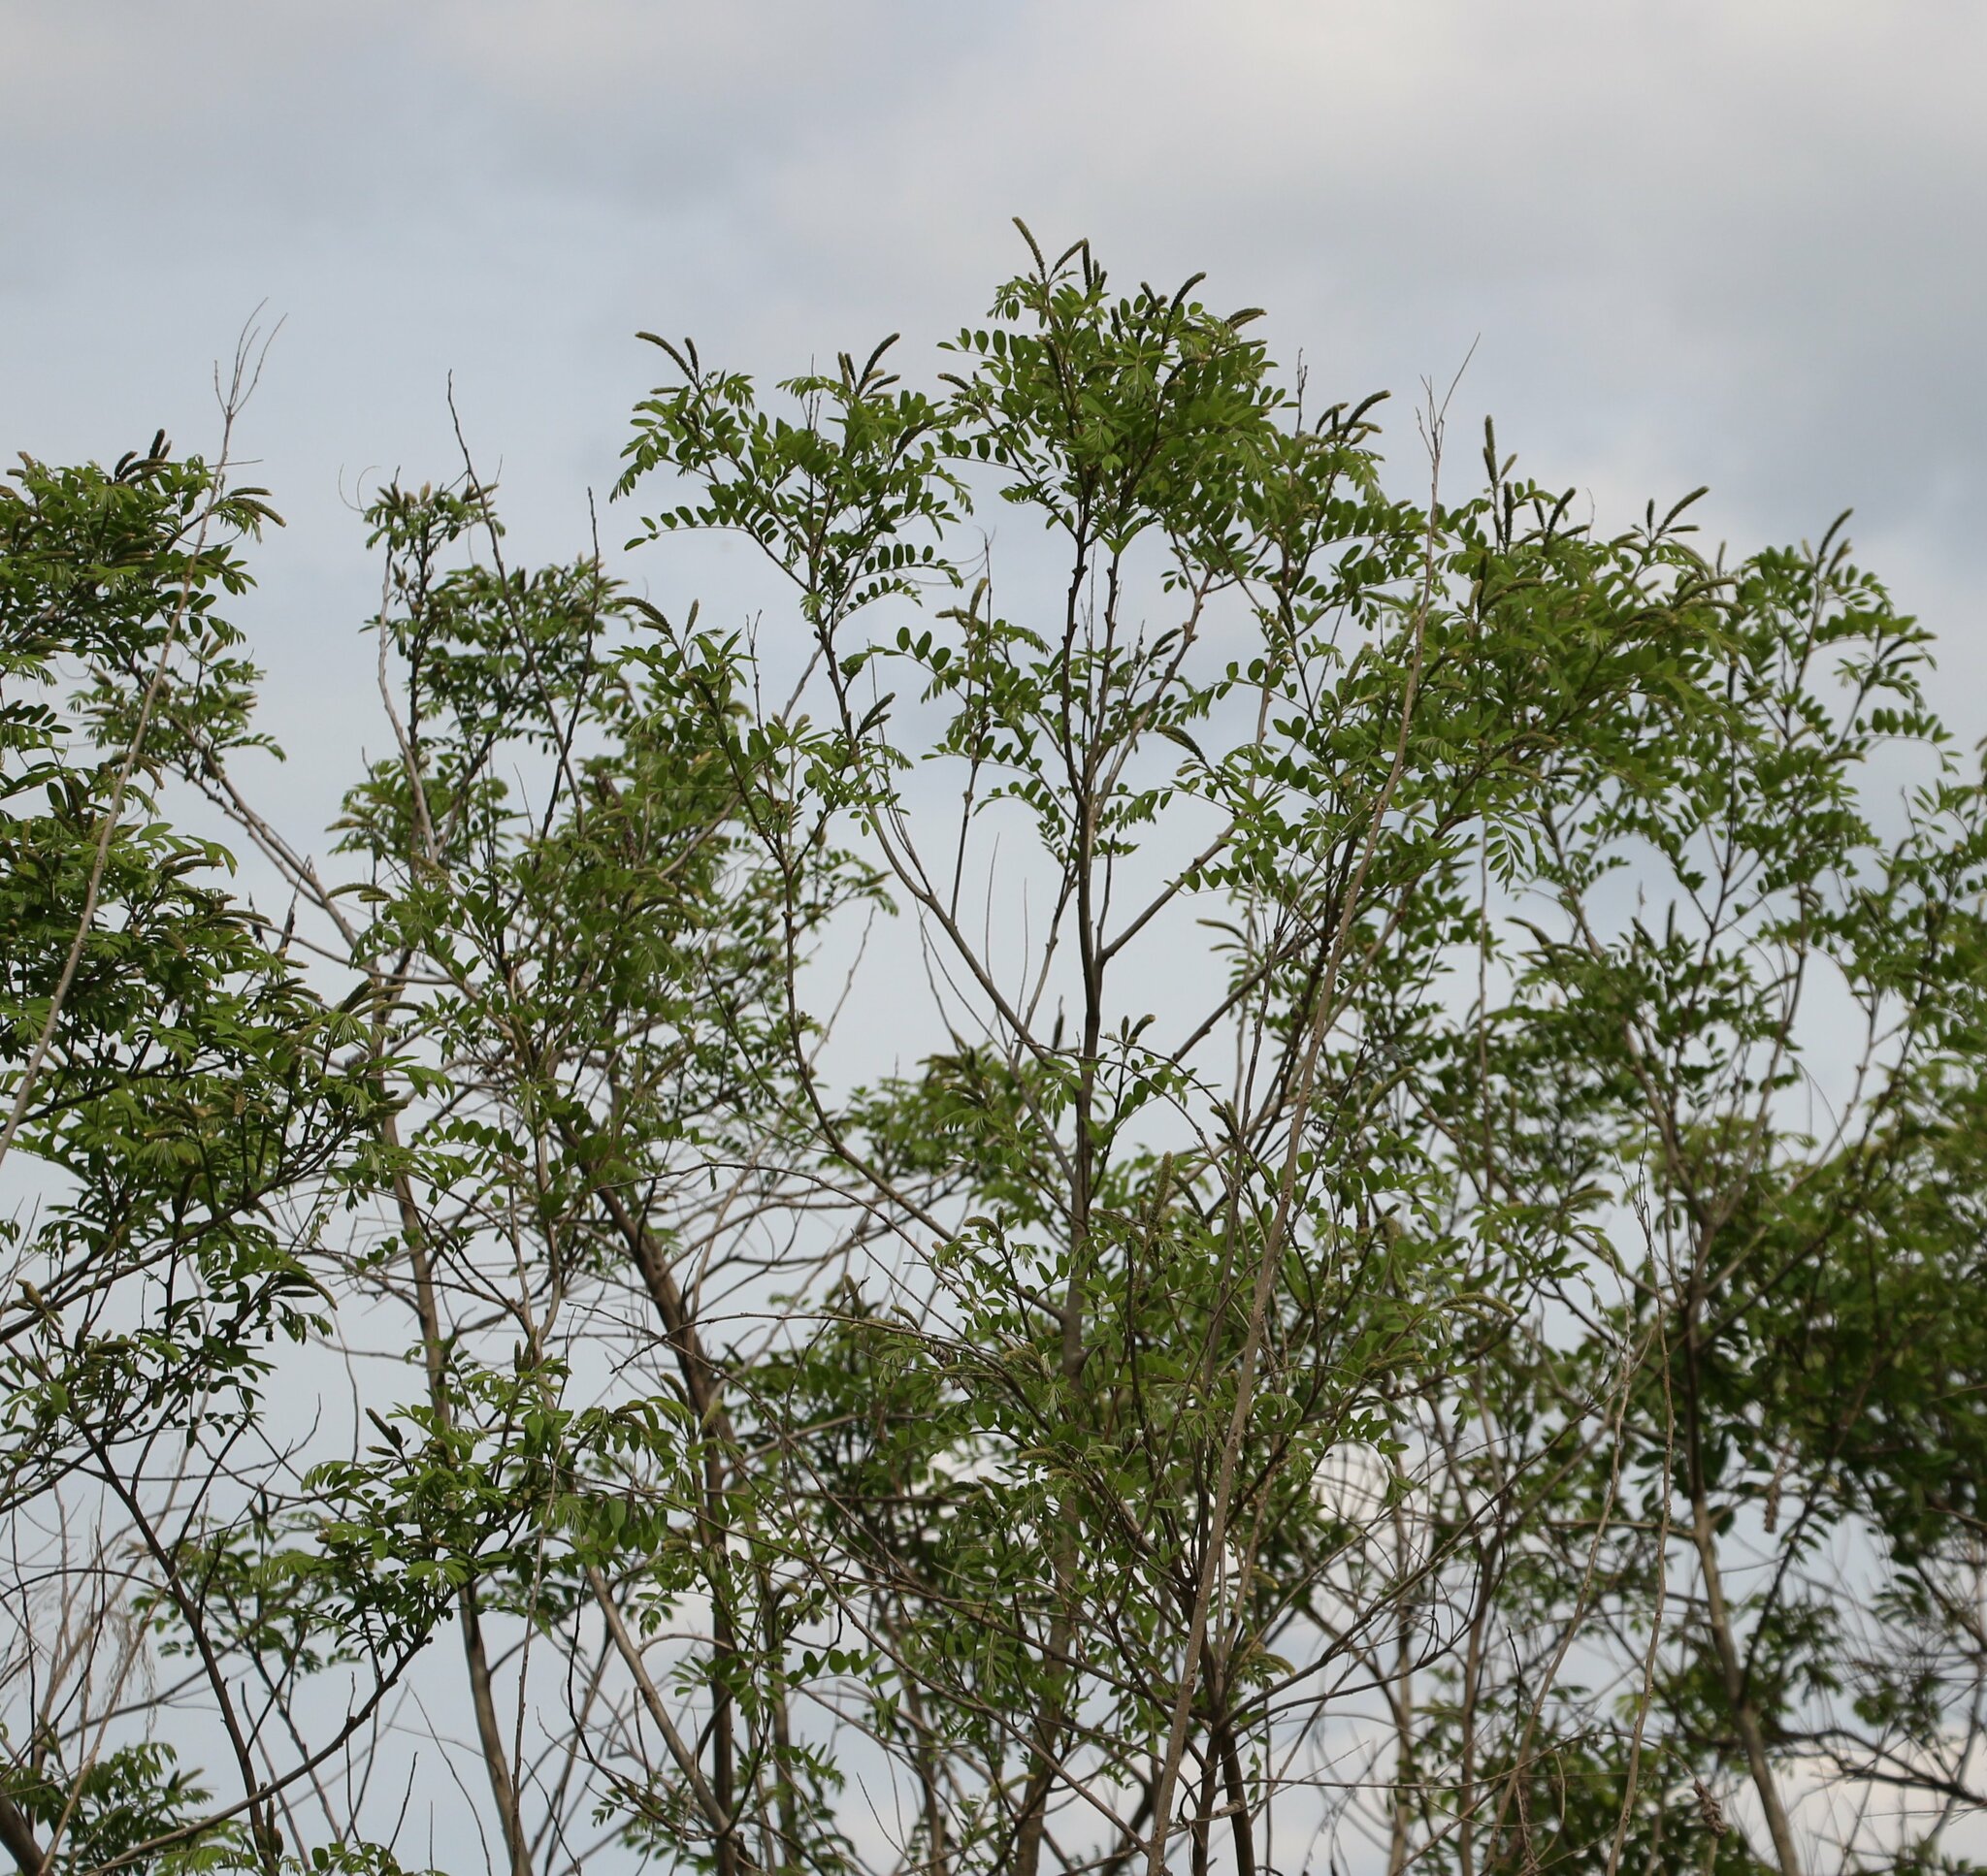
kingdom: Plantae
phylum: Tracheophyta
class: Magnoliopsida
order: Fabales
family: Fabaceae
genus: Amorpha
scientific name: Amorpha fruticosa
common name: False indigo
